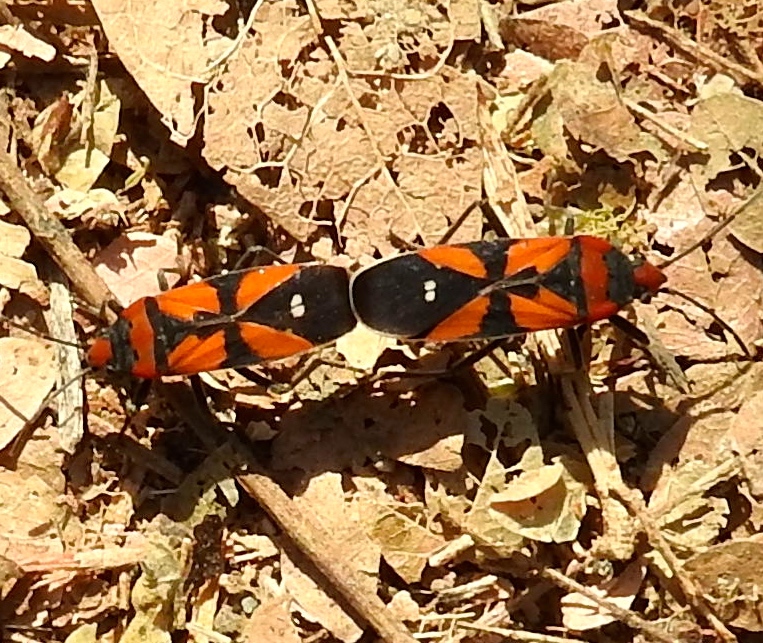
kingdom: Animalia
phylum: Arthropoda
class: Insecta
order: Hemiptera
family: Lygaeidae
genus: Lygaeus
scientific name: Lygaeus analis
